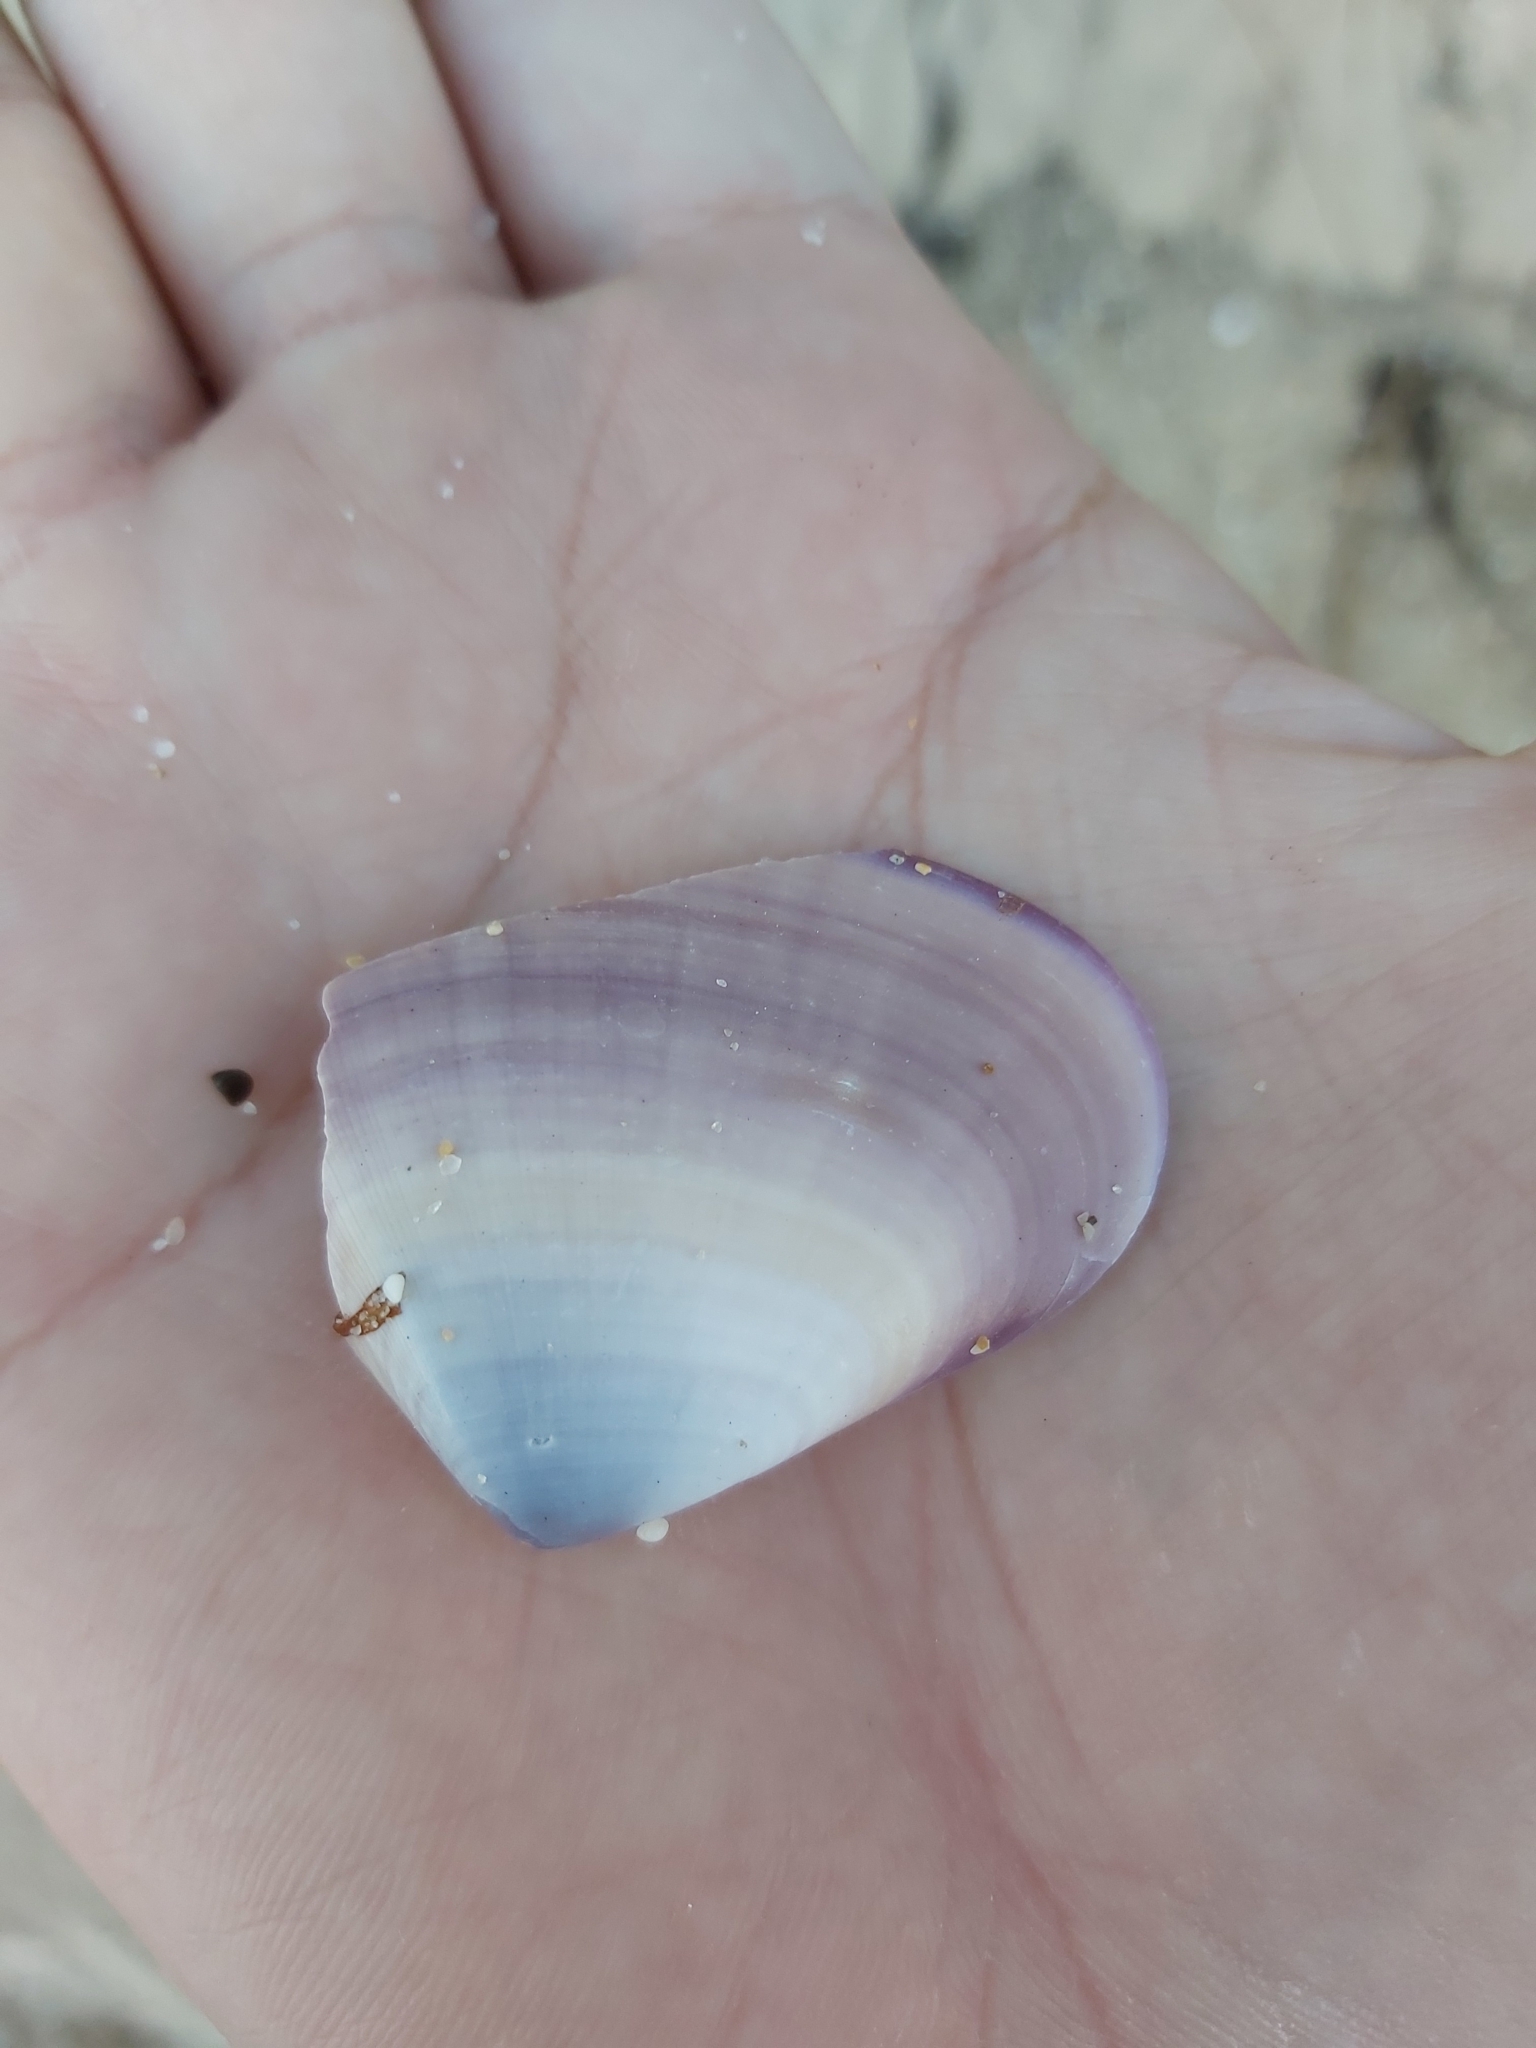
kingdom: Animalia
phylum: Mollusca
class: Bivalvia
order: Cardiida
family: Donacidae
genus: Latona
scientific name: Latona deltoides
